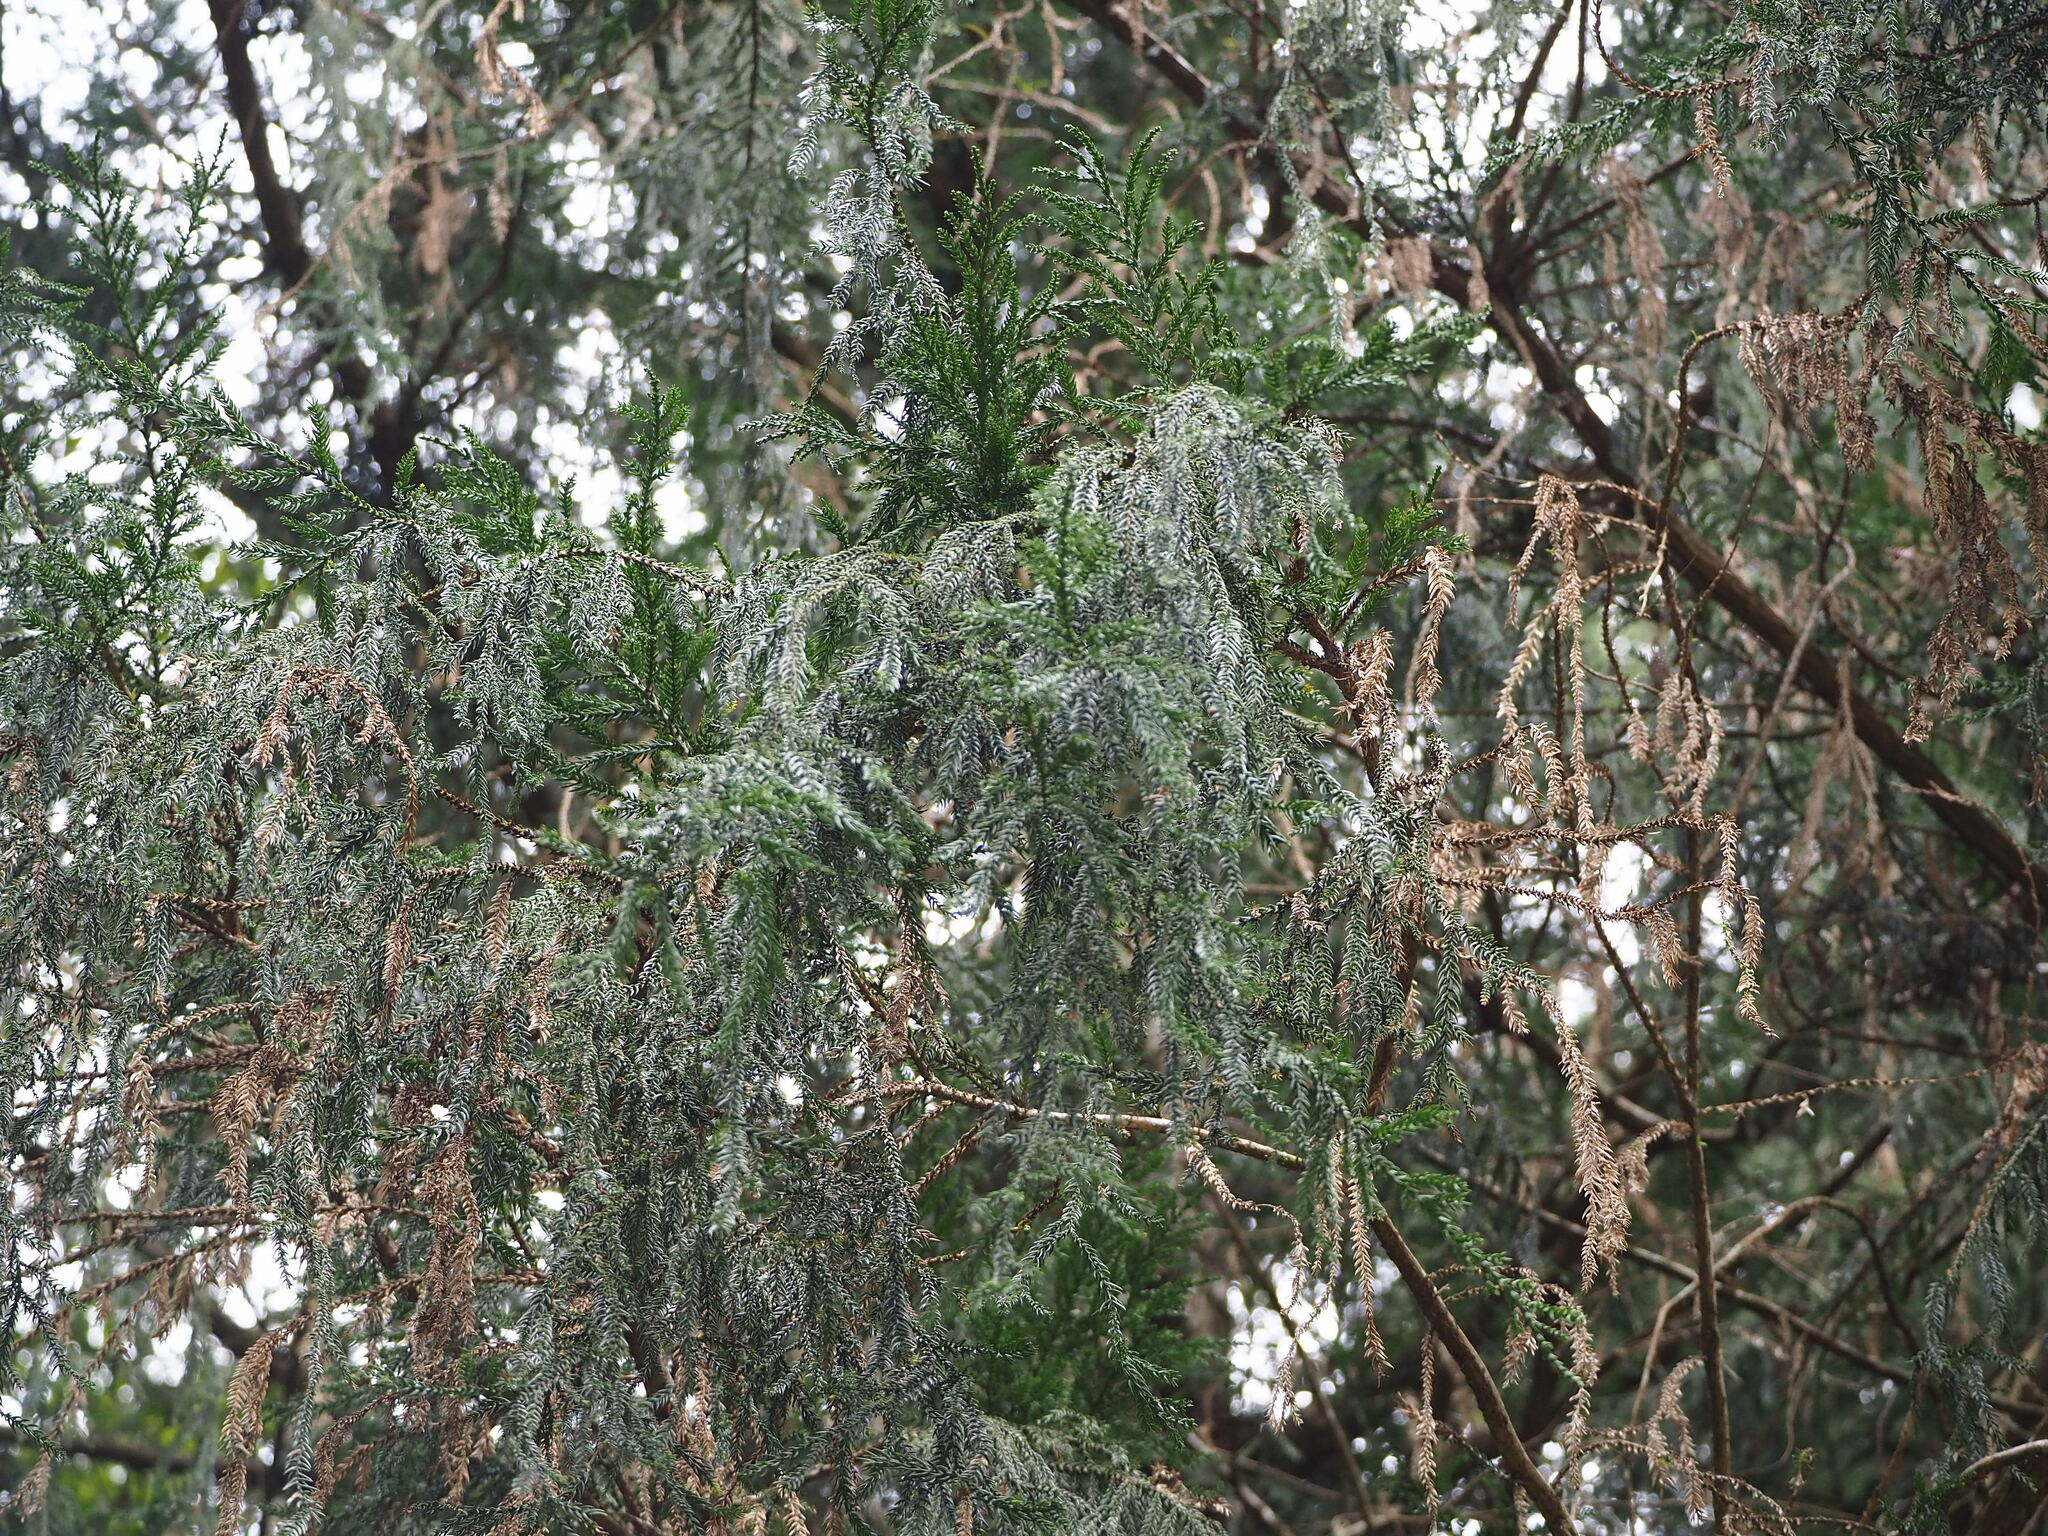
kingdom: Plantae
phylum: Tracheophyta
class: Pinopsida
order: Pinales
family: Cupressaceae
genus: Taiwania
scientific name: Taiwania cryptomerioides
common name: Coffin tree
